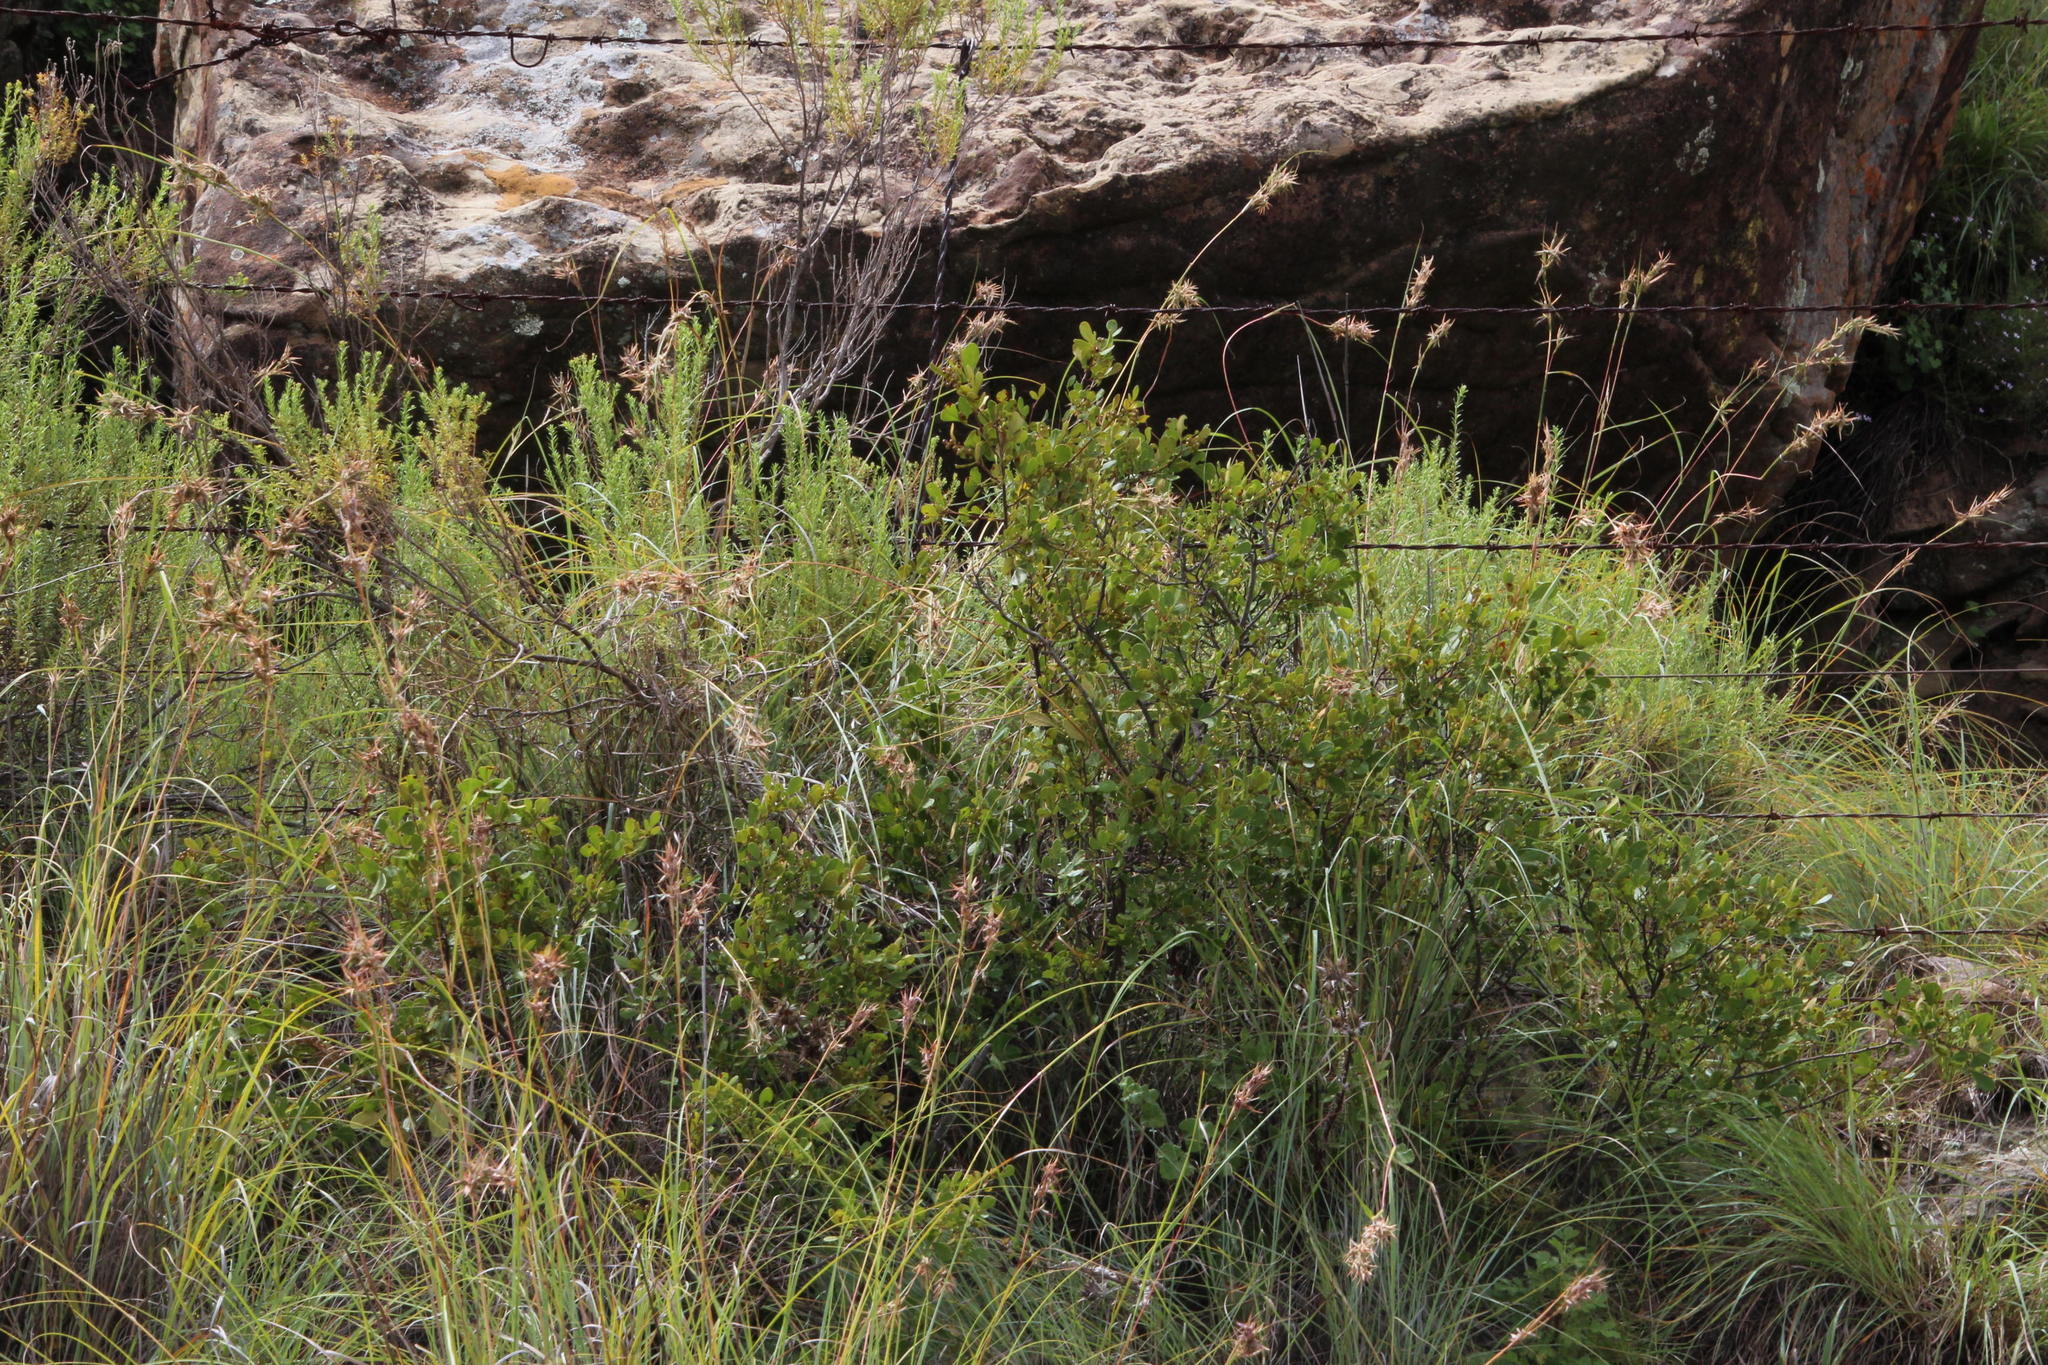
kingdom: Plantae
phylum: Tracheophyta
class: Magnoliopsida
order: Sapindales
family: Anacardiaceae
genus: Searsia
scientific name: Searsia divaricata
